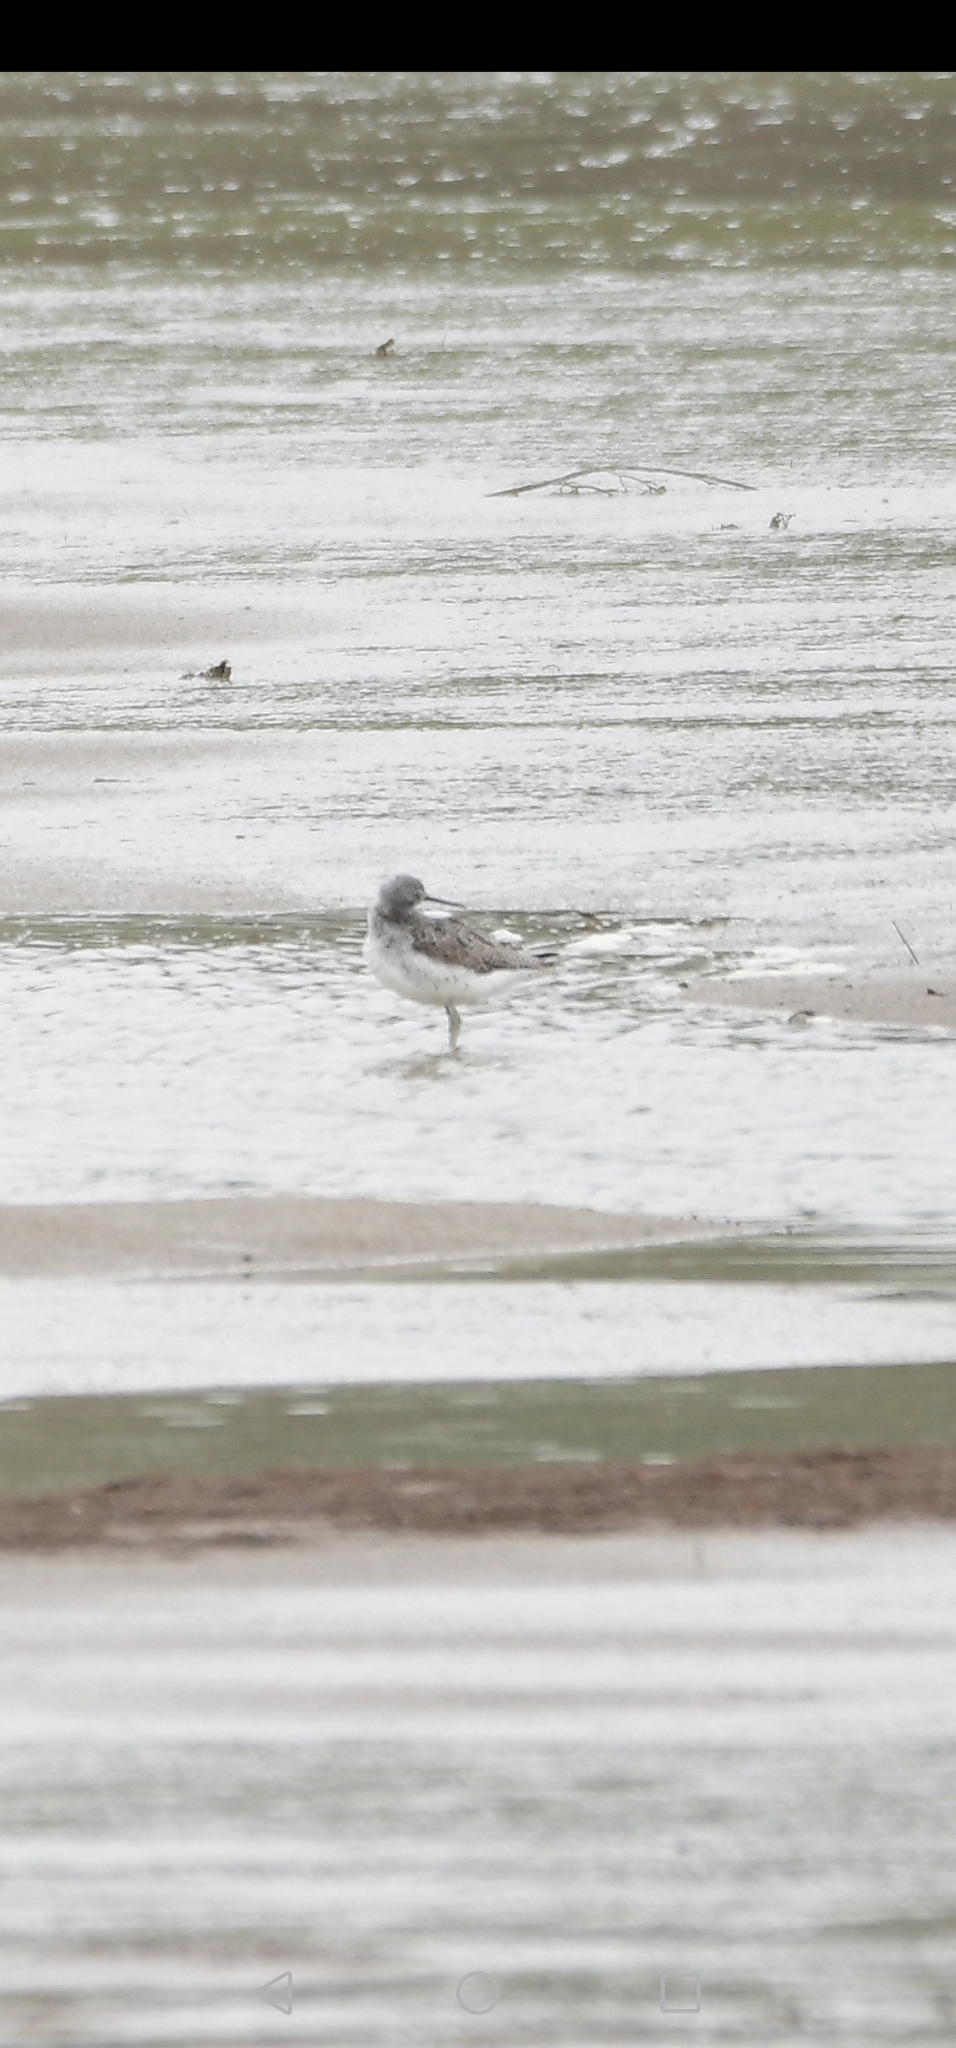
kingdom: Animalia
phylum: Chordata
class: Aves
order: Charadriiformes
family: Scolopacidae
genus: Tringa
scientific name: Tringa nebularia
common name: Common greenshank
